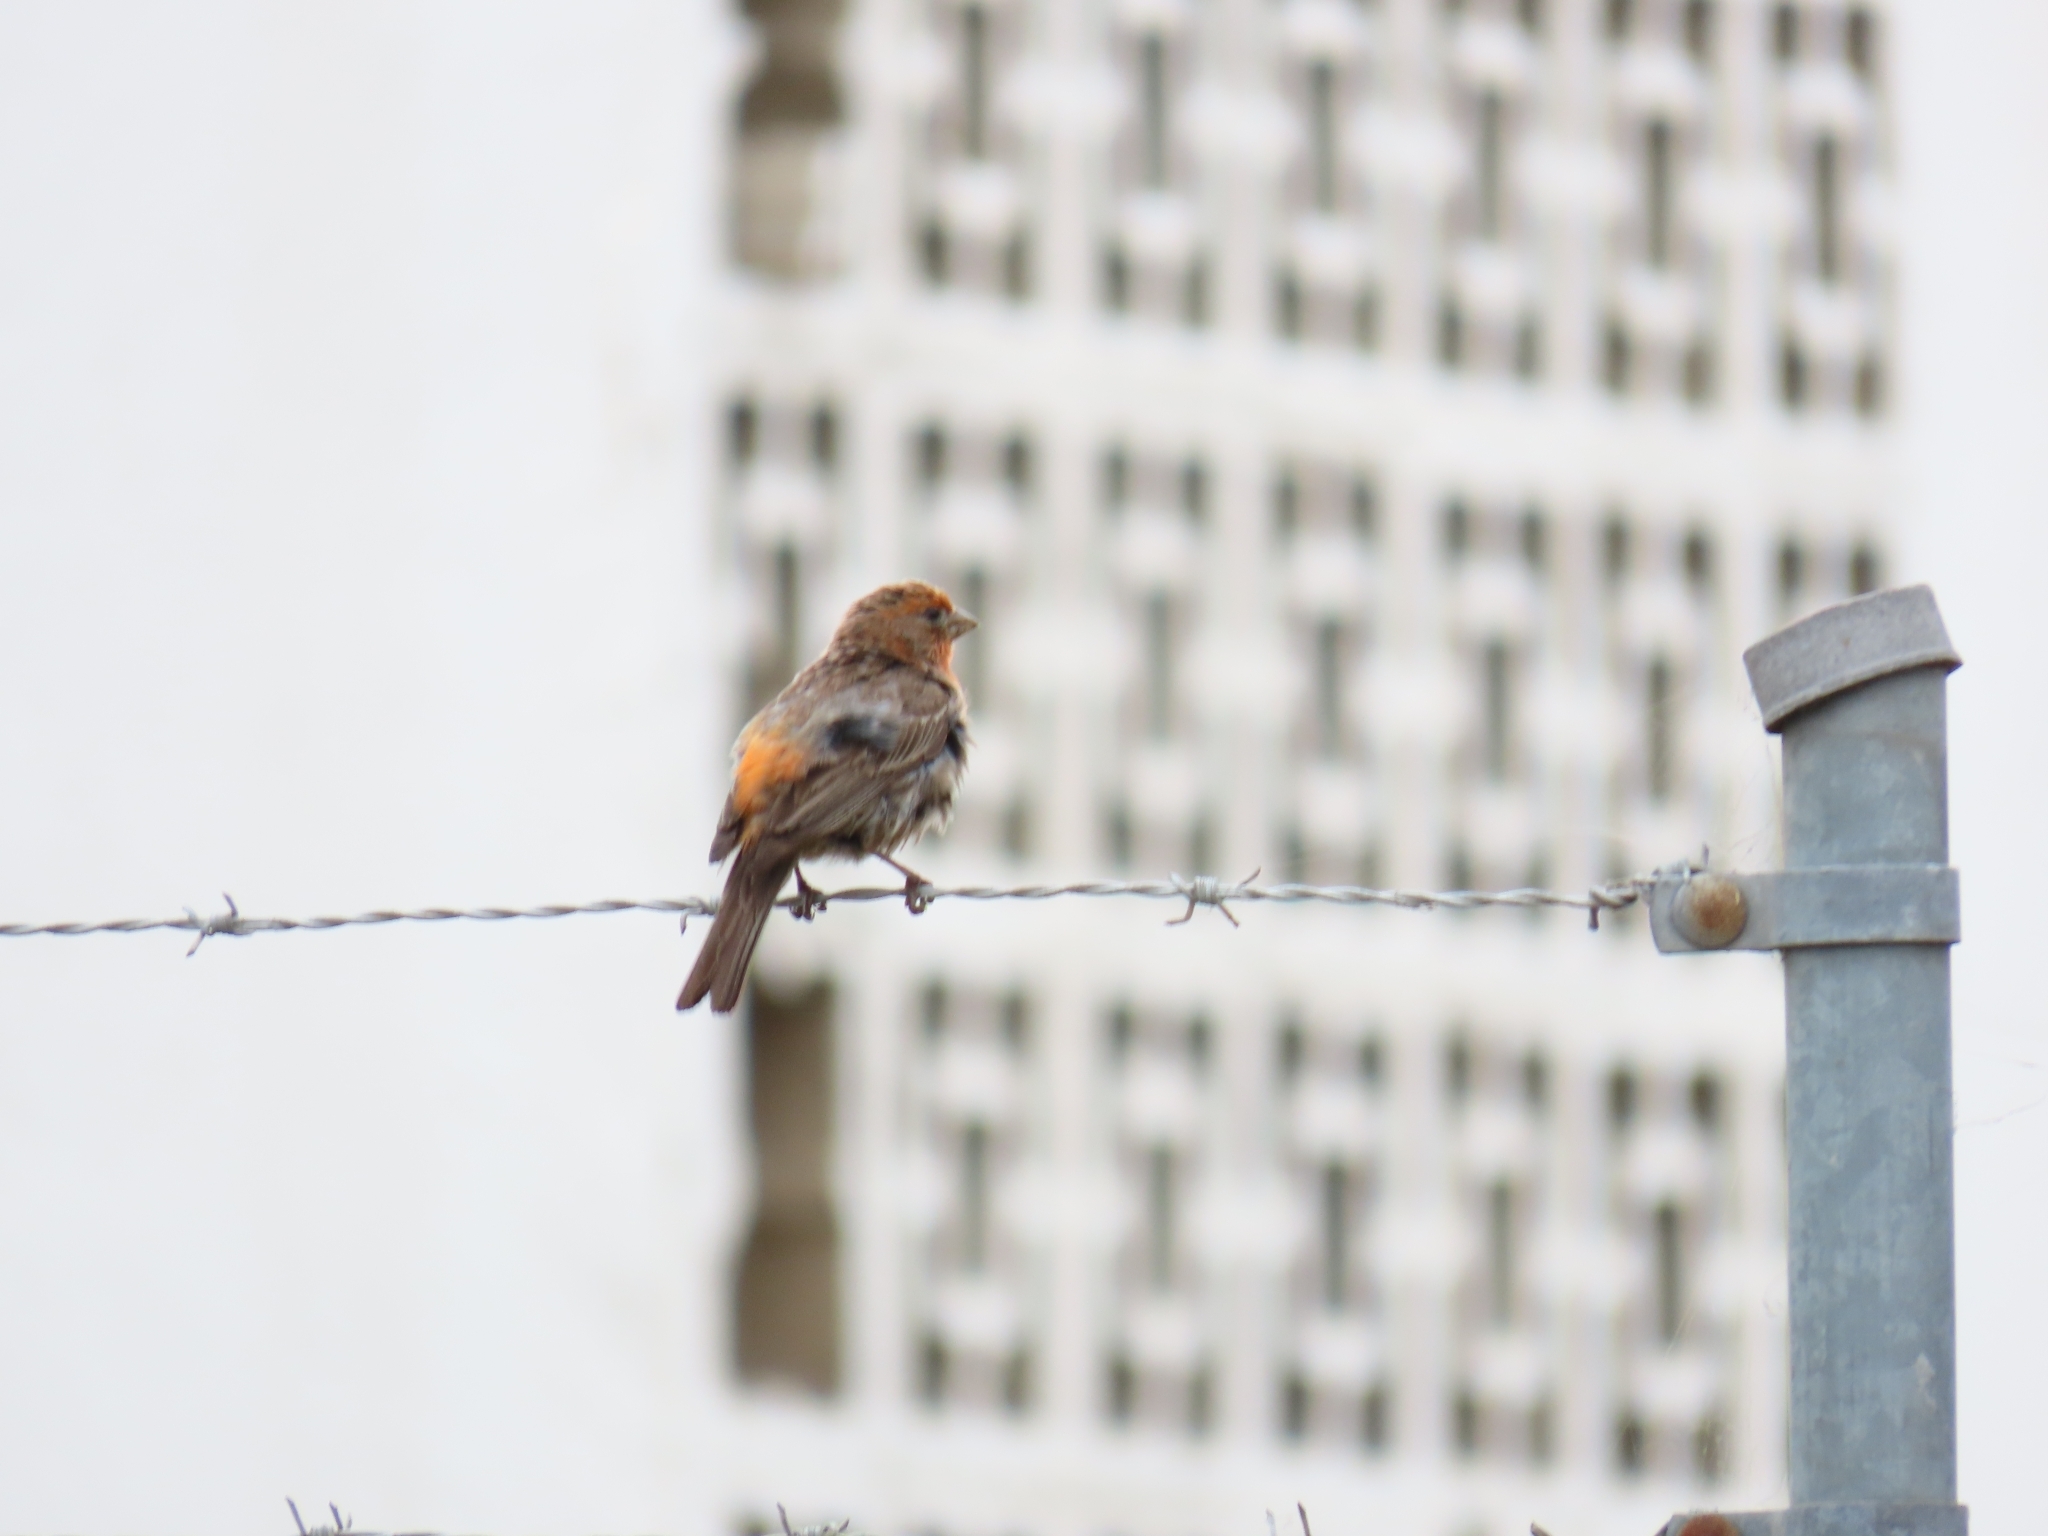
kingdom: Animalia
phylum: Chordata
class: Aves
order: Passeriformes
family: Fringillidae
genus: Haemorhous
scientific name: Haemorhous mexicanus
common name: House finch
